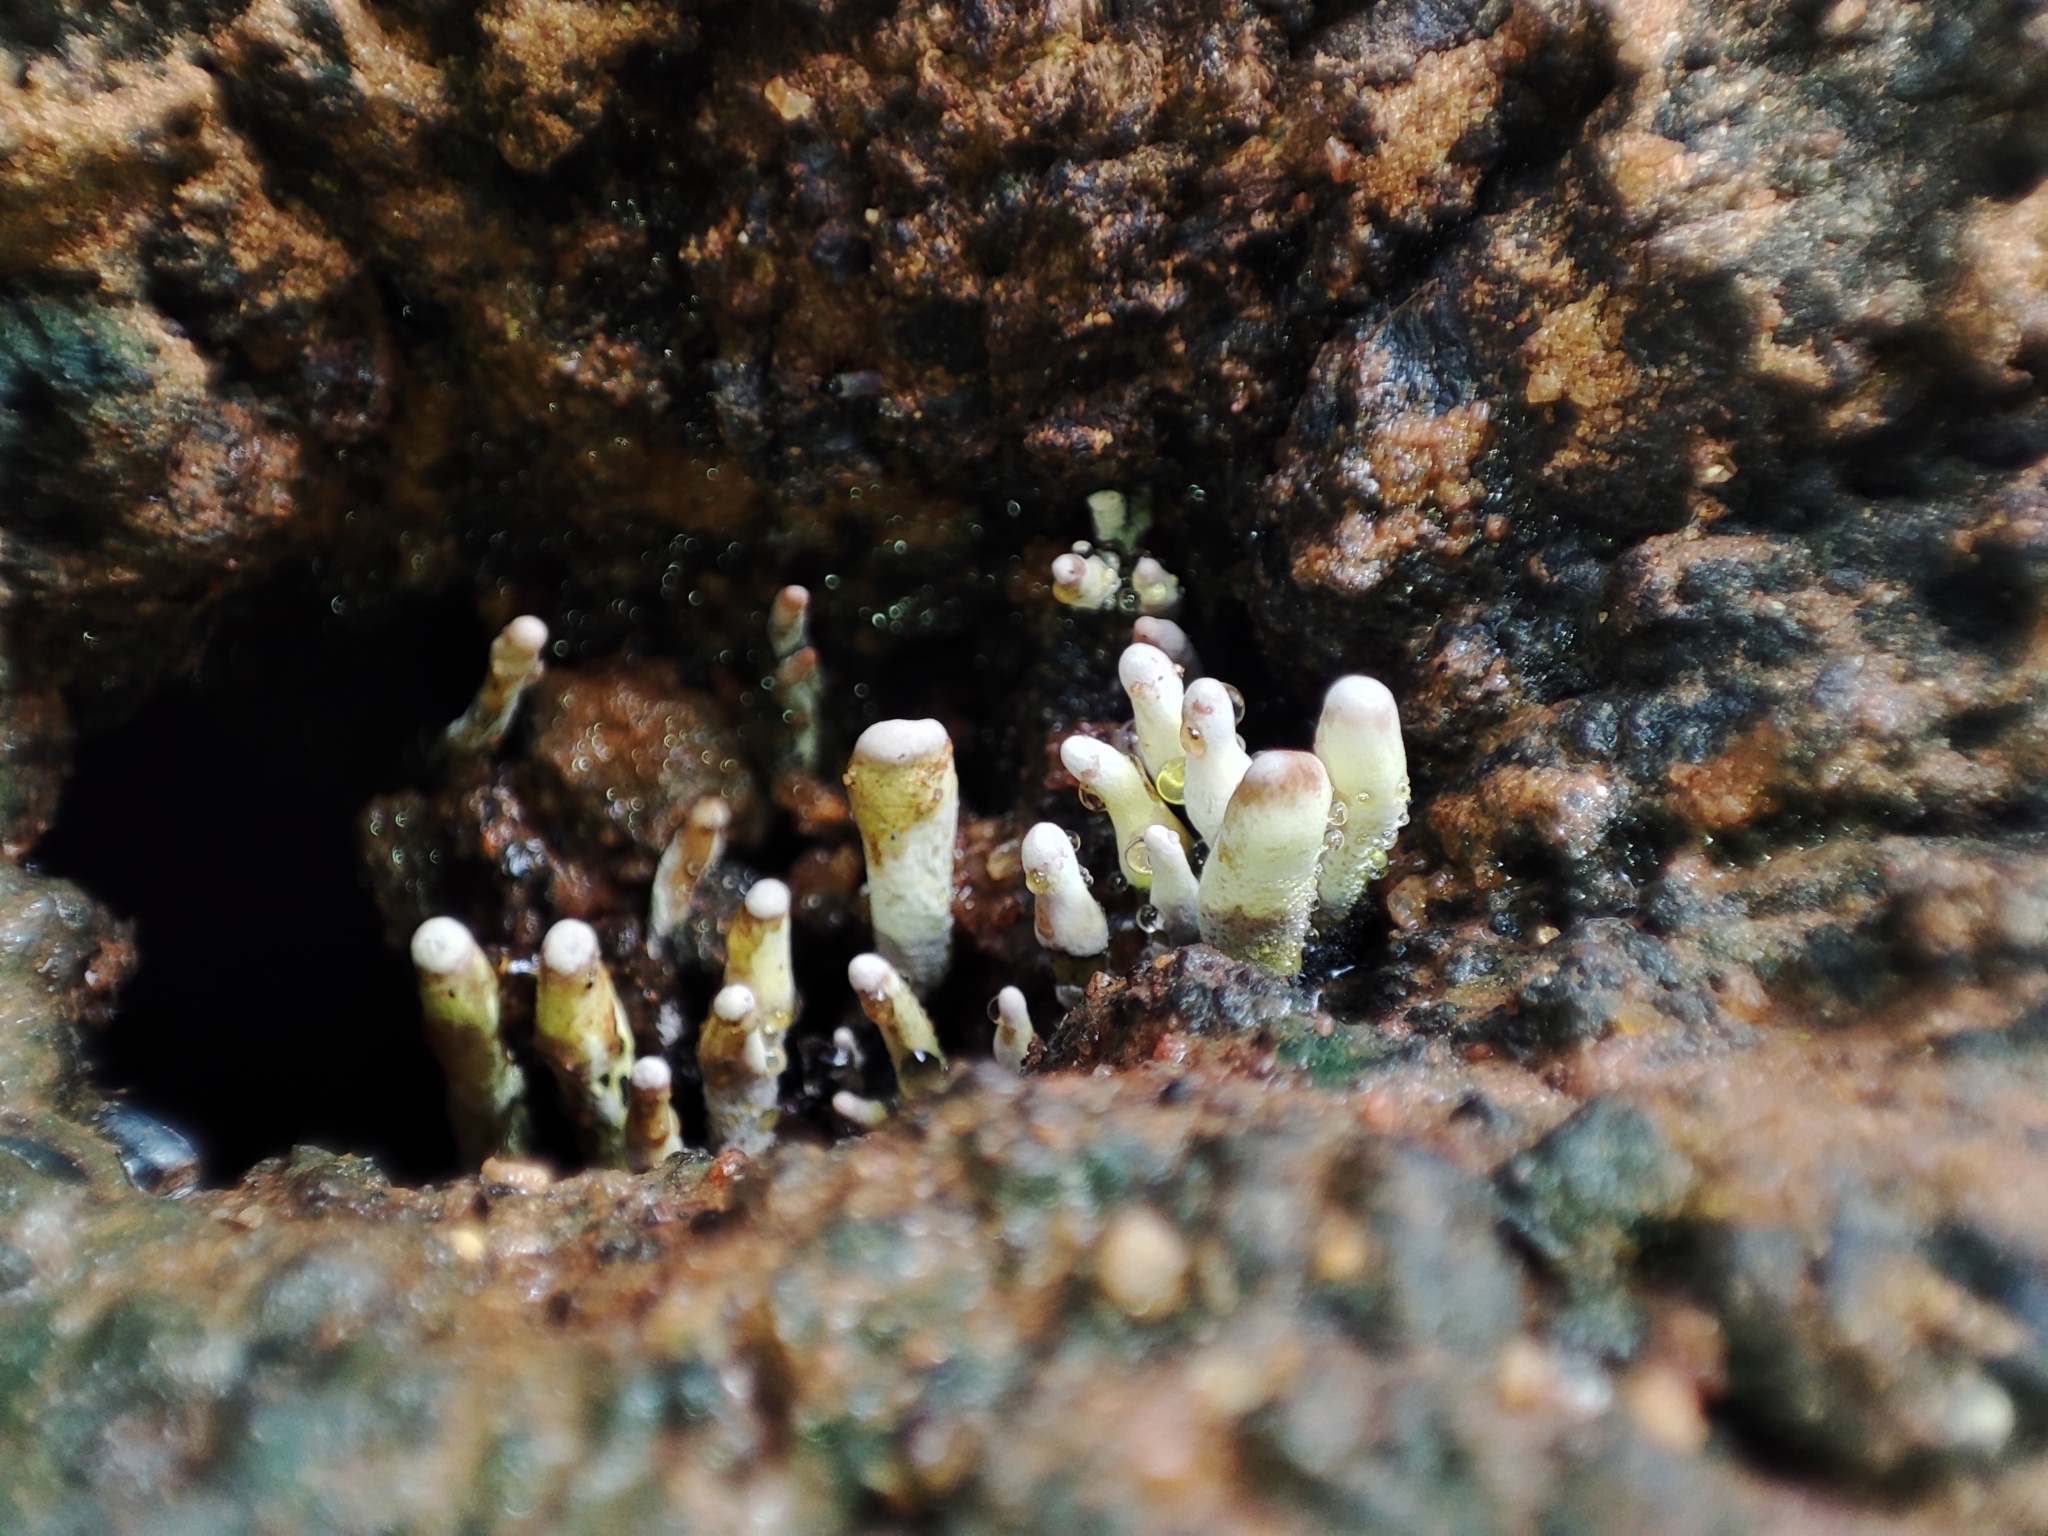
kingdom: Fungi
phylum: Ascomycota
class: Sordariomycetes
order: Xylariales
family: Xylariaceae
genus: Xylaria
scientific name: Xylaria polymorpha
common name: Dead man's fingers
